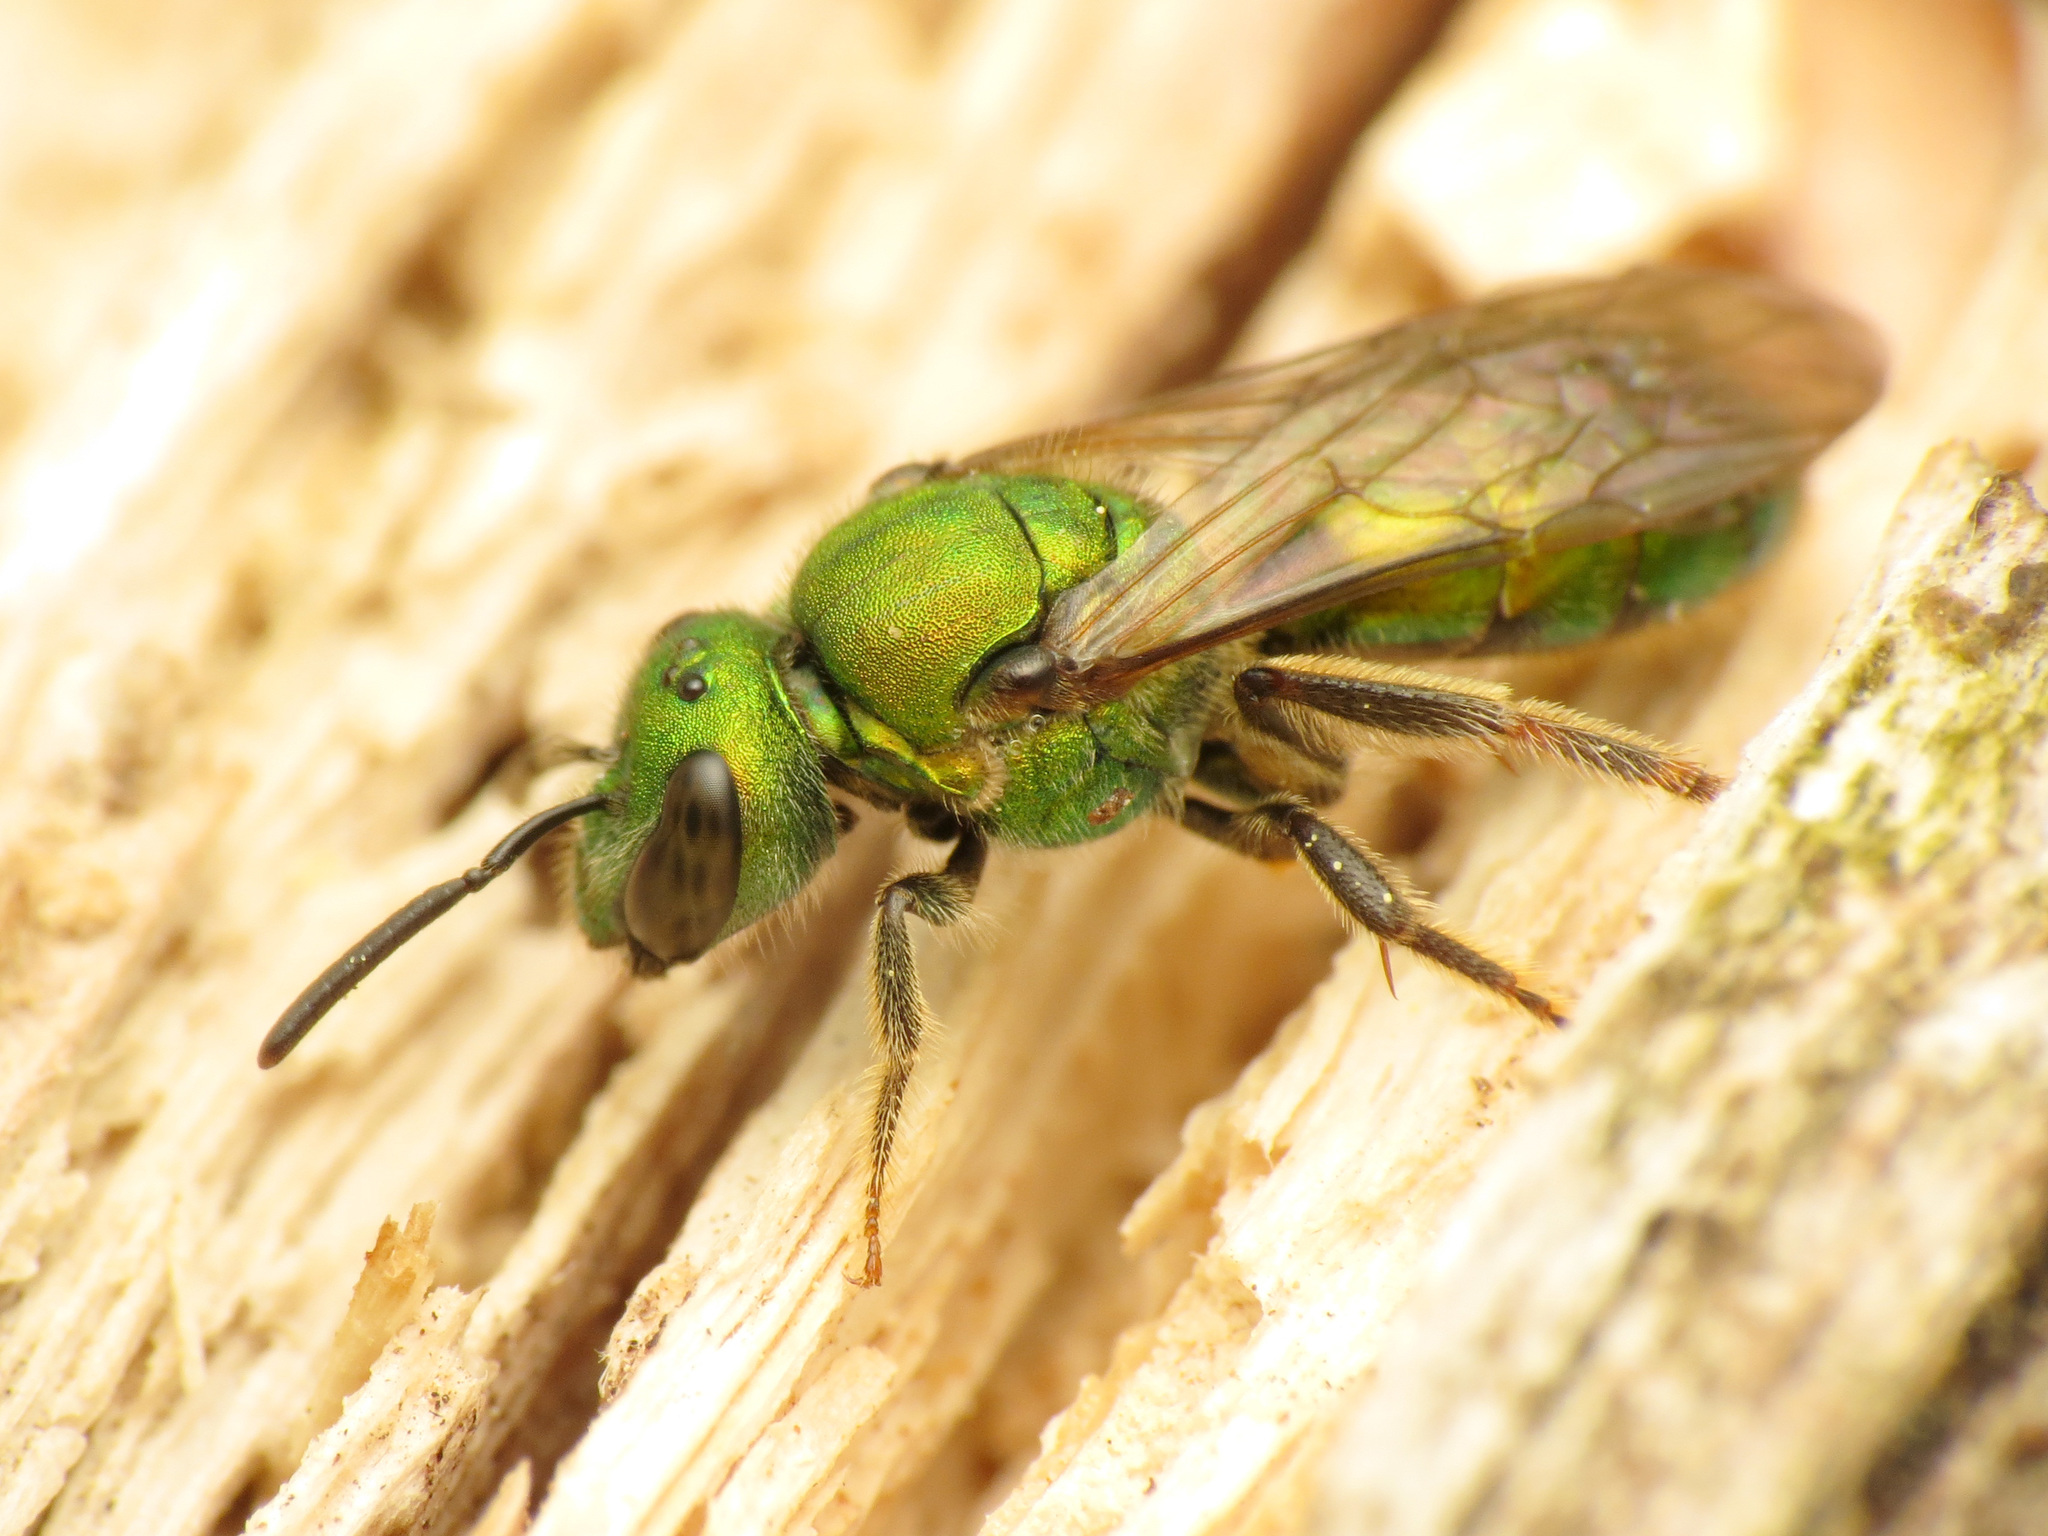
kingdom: Animalia
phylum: Arthropoda
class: Insecta
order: Hymenoptera
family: Halictidae
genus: Augochlora
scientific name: Augochlora pura
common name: Pure green sweat bee
